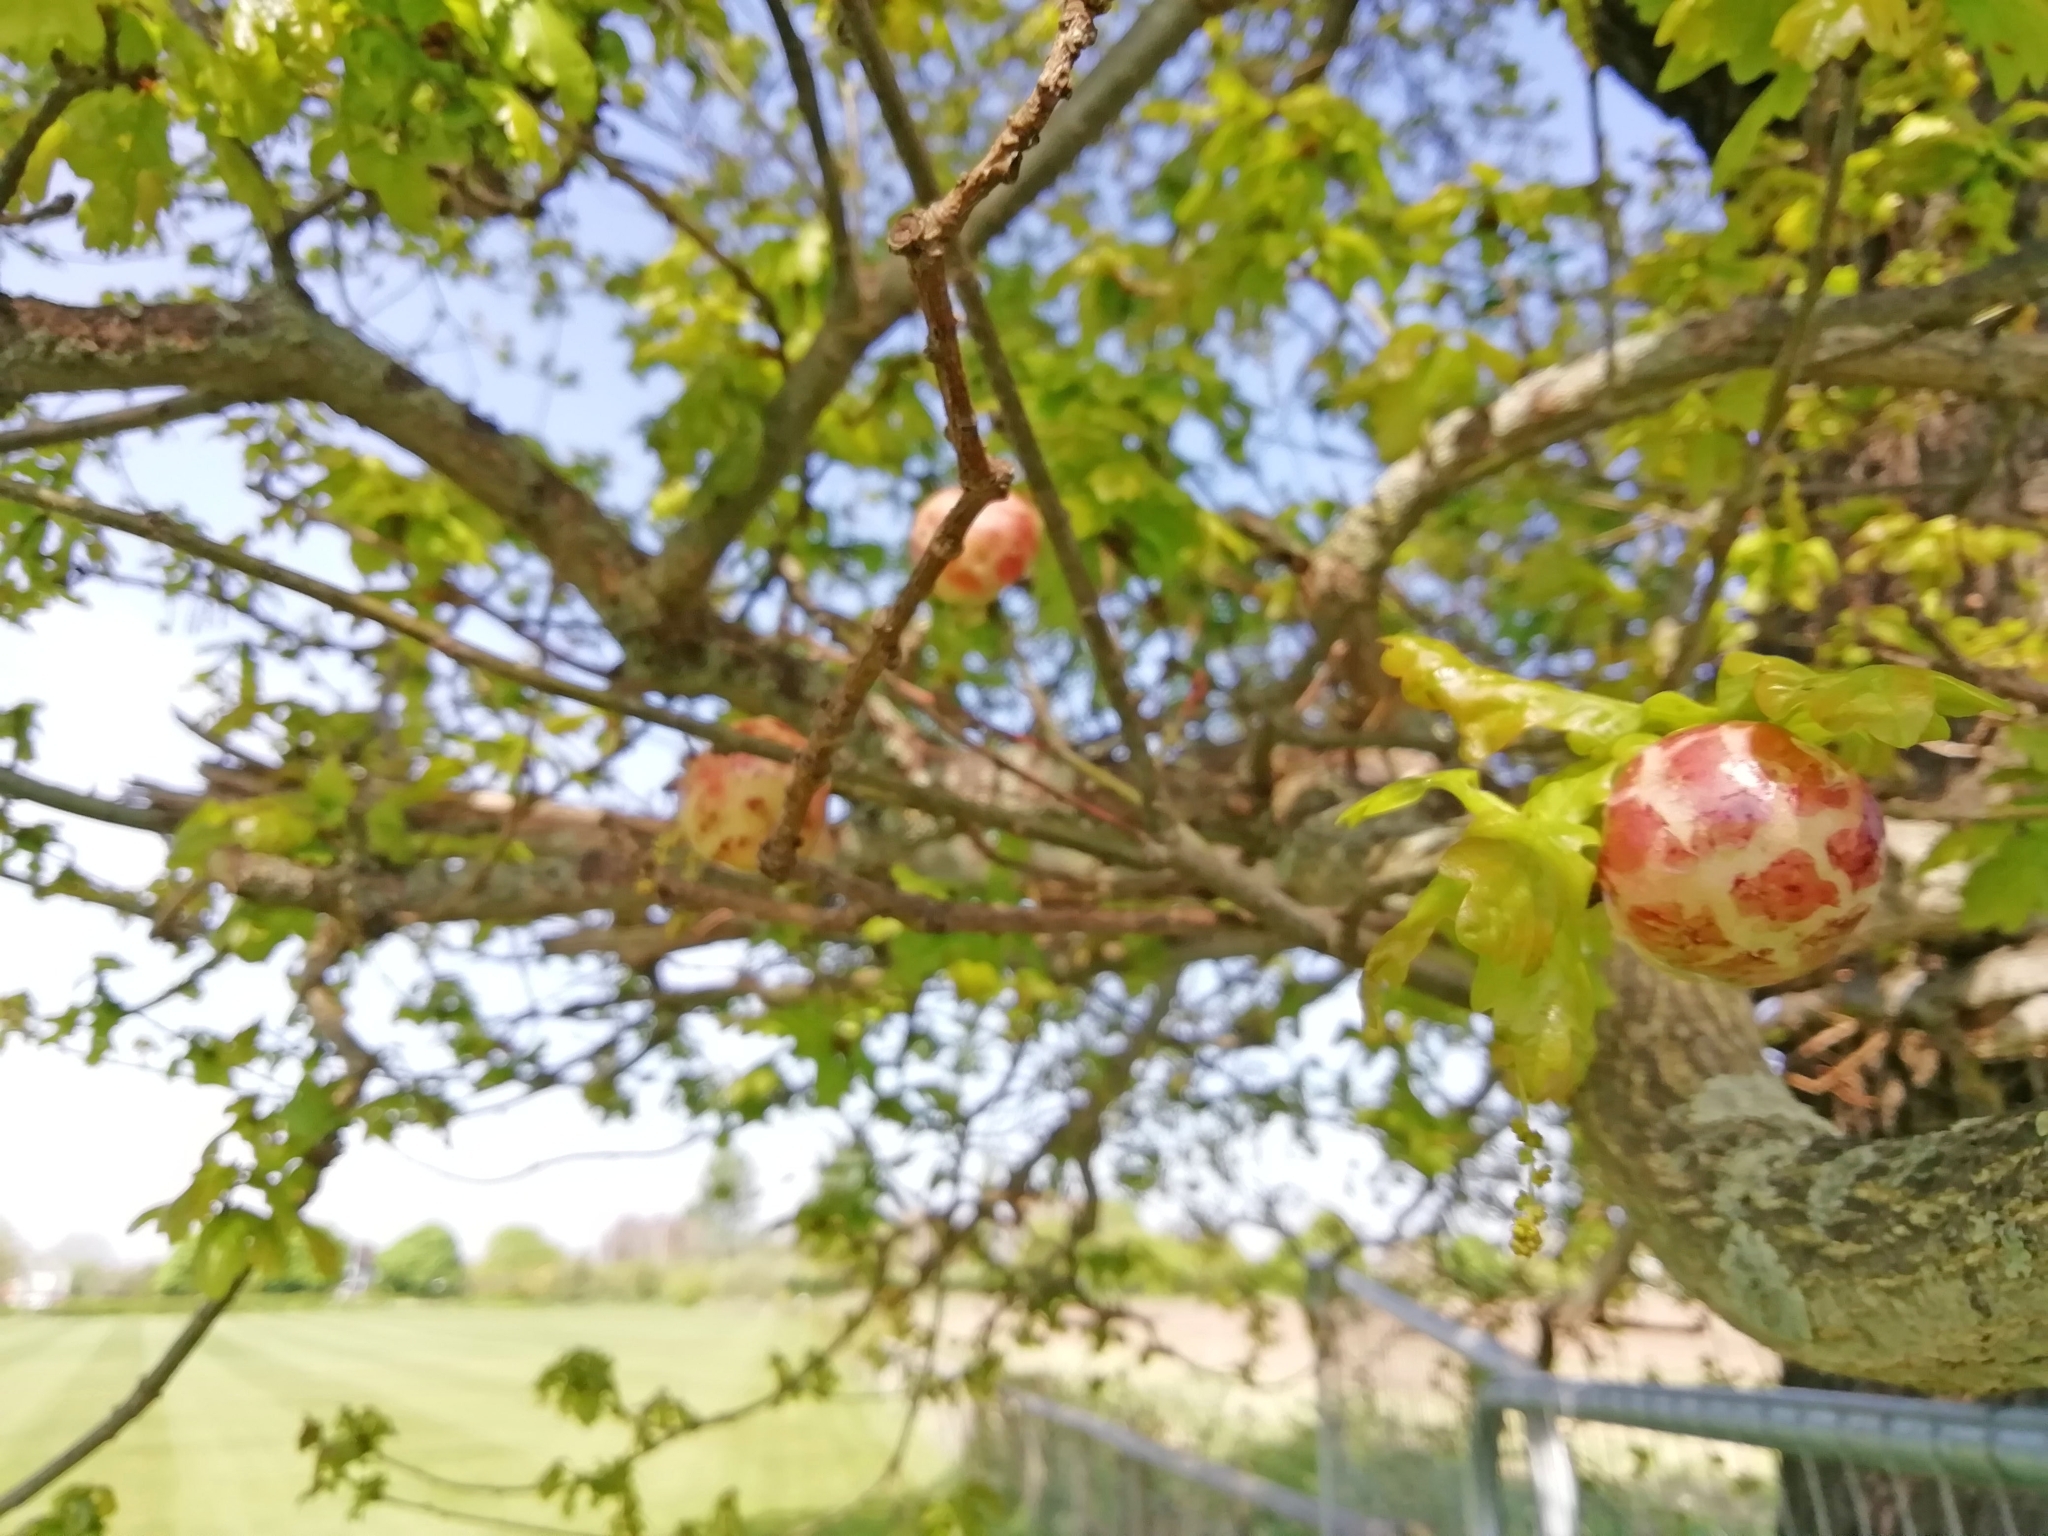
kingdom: Animalia
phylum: Arthropoda
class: Insecta
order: Hymenoptera
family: Cynipidae
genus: Biorhiza
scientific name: Biorhiza pallida
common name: Oak apple
